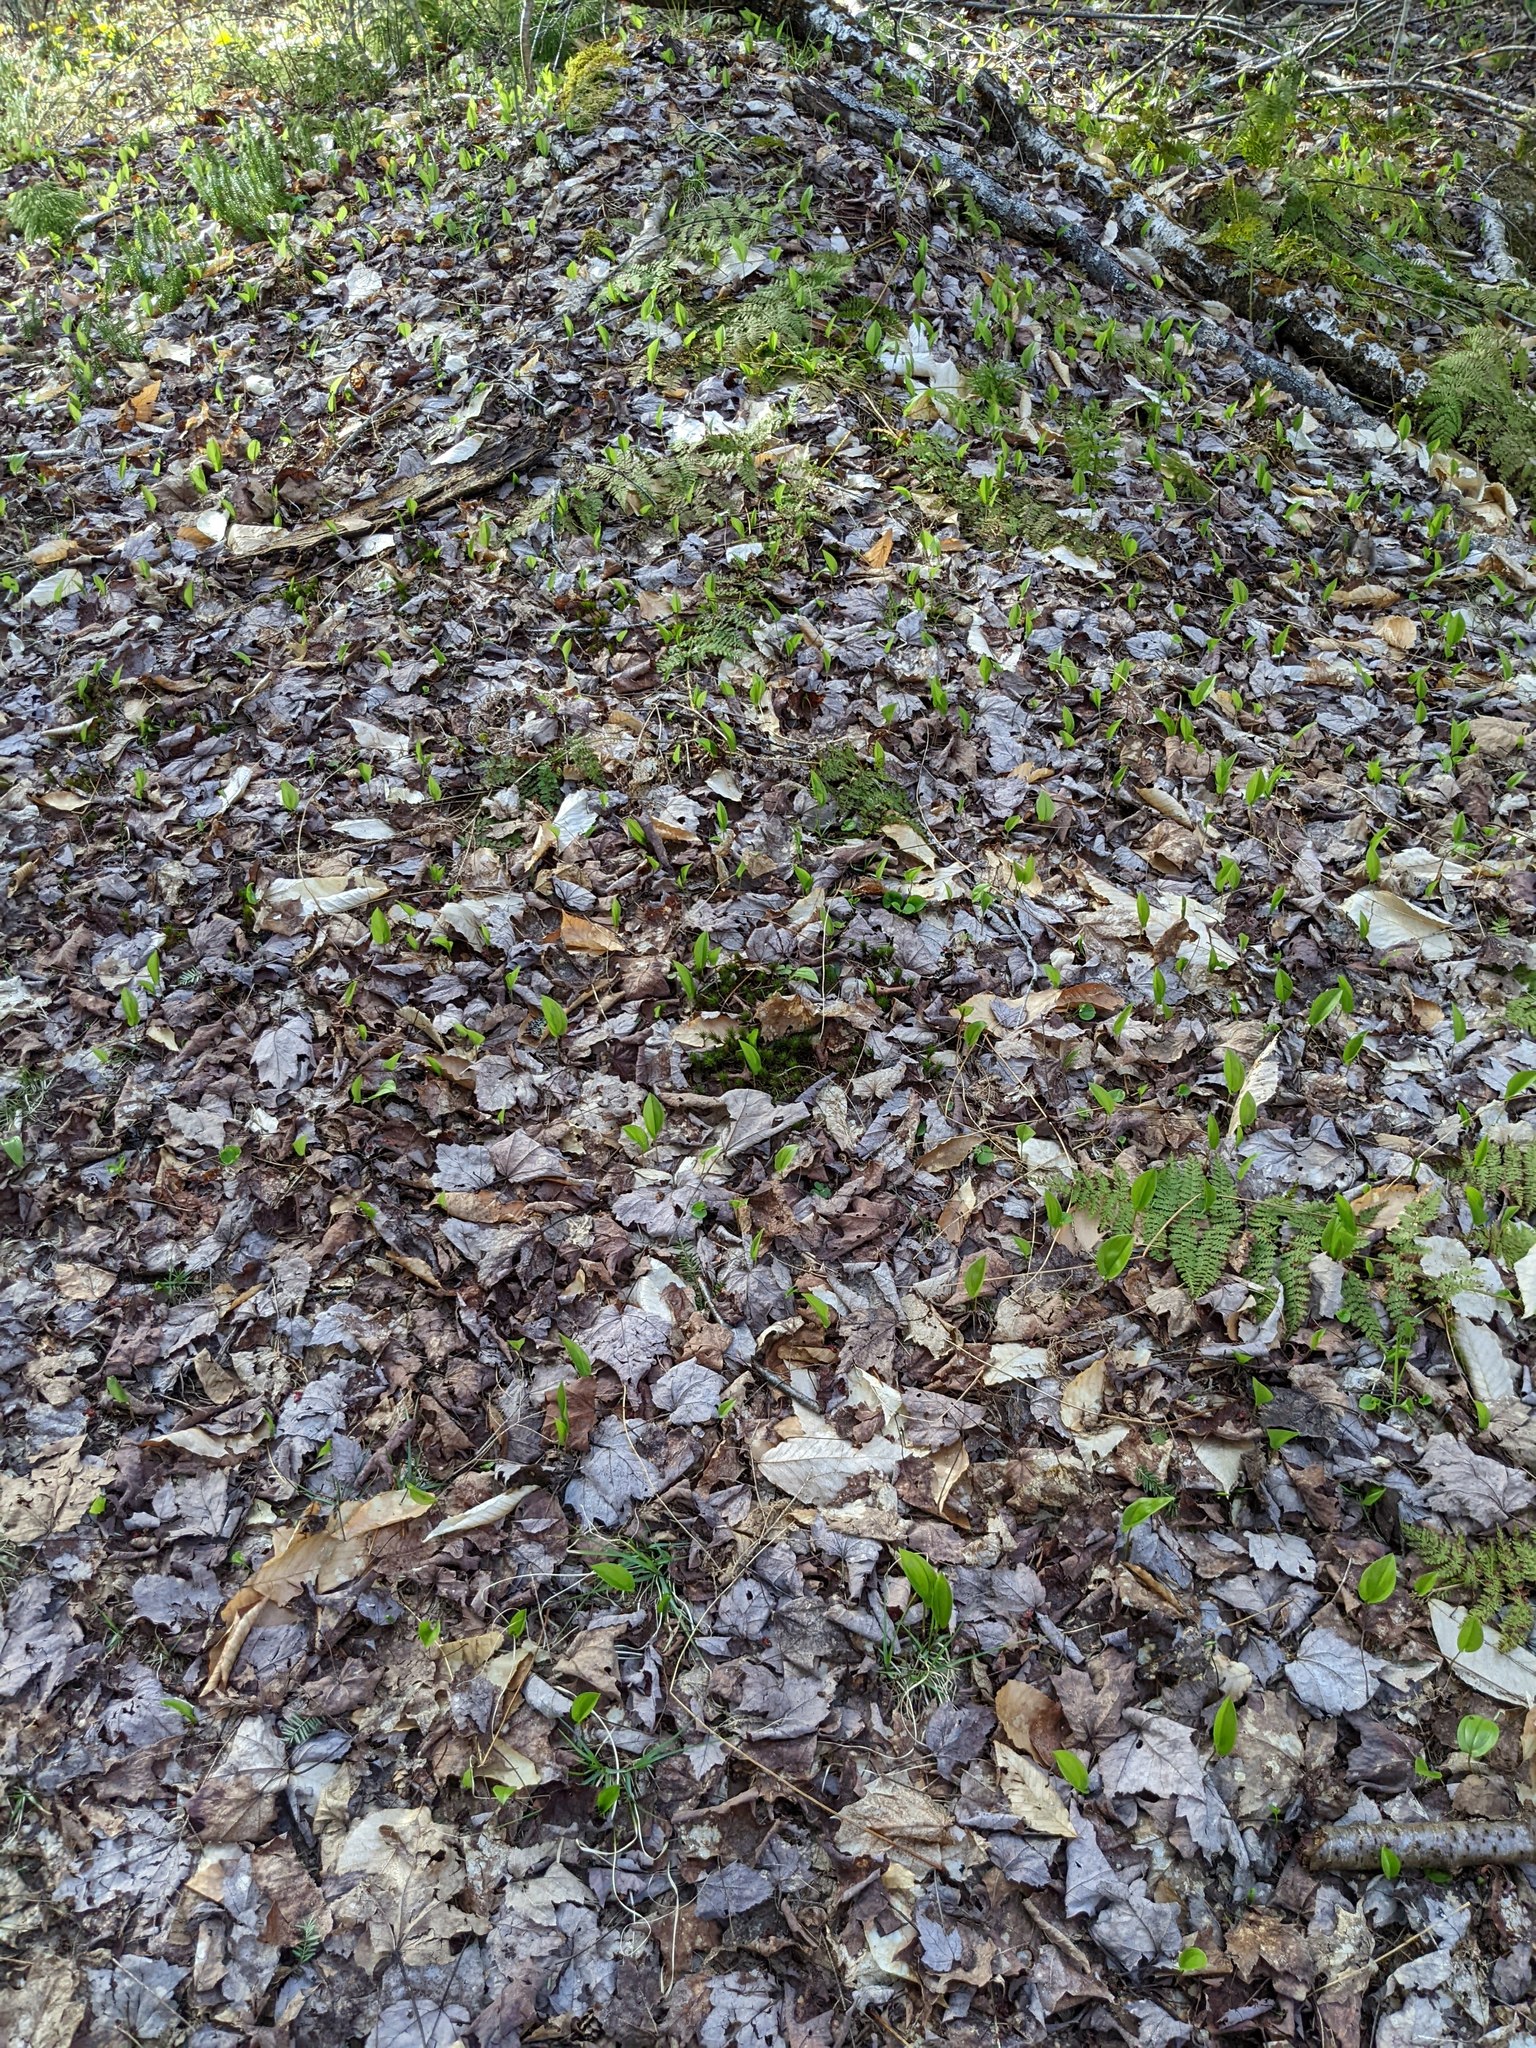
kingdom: Plantae
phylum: Tracheophyta
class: Liliopsida
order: Asparagales
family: Asparagaceae
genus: Maianthemum
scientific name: Maianthemum canadense
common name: False lily-of-the-valley
